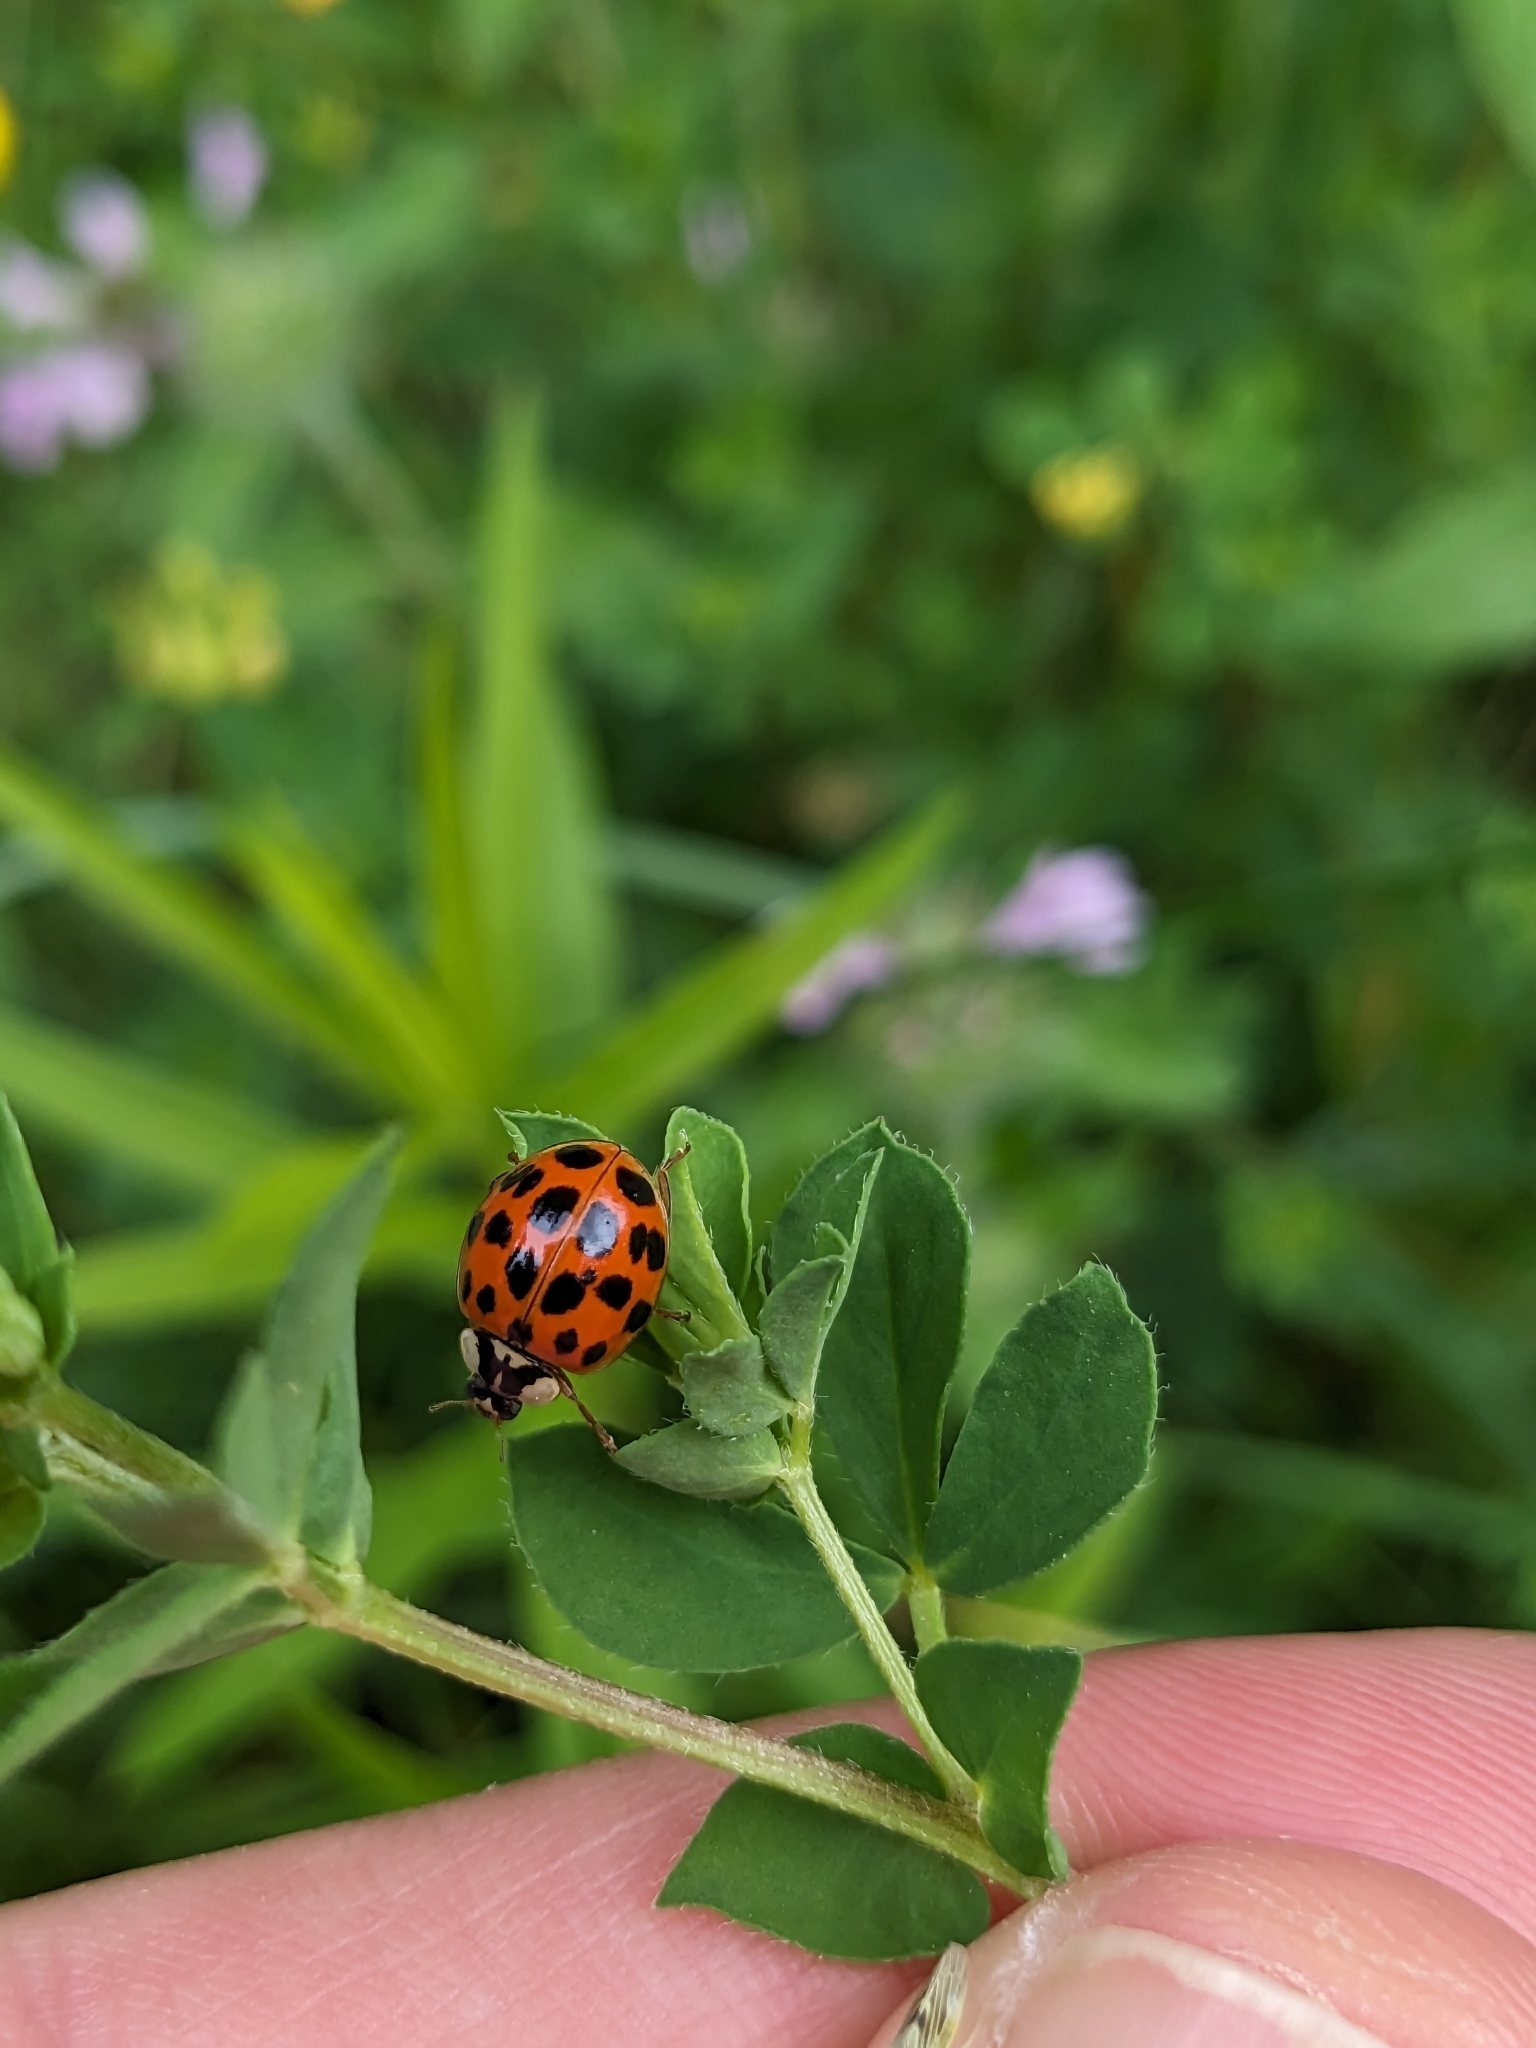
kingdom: Animalia
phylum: Arthropoda
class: Insecta
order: Coleoptera
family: Coccinellidae
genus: Harmonia
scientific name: Harmonia axyridis
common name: Harlequin ladybird
